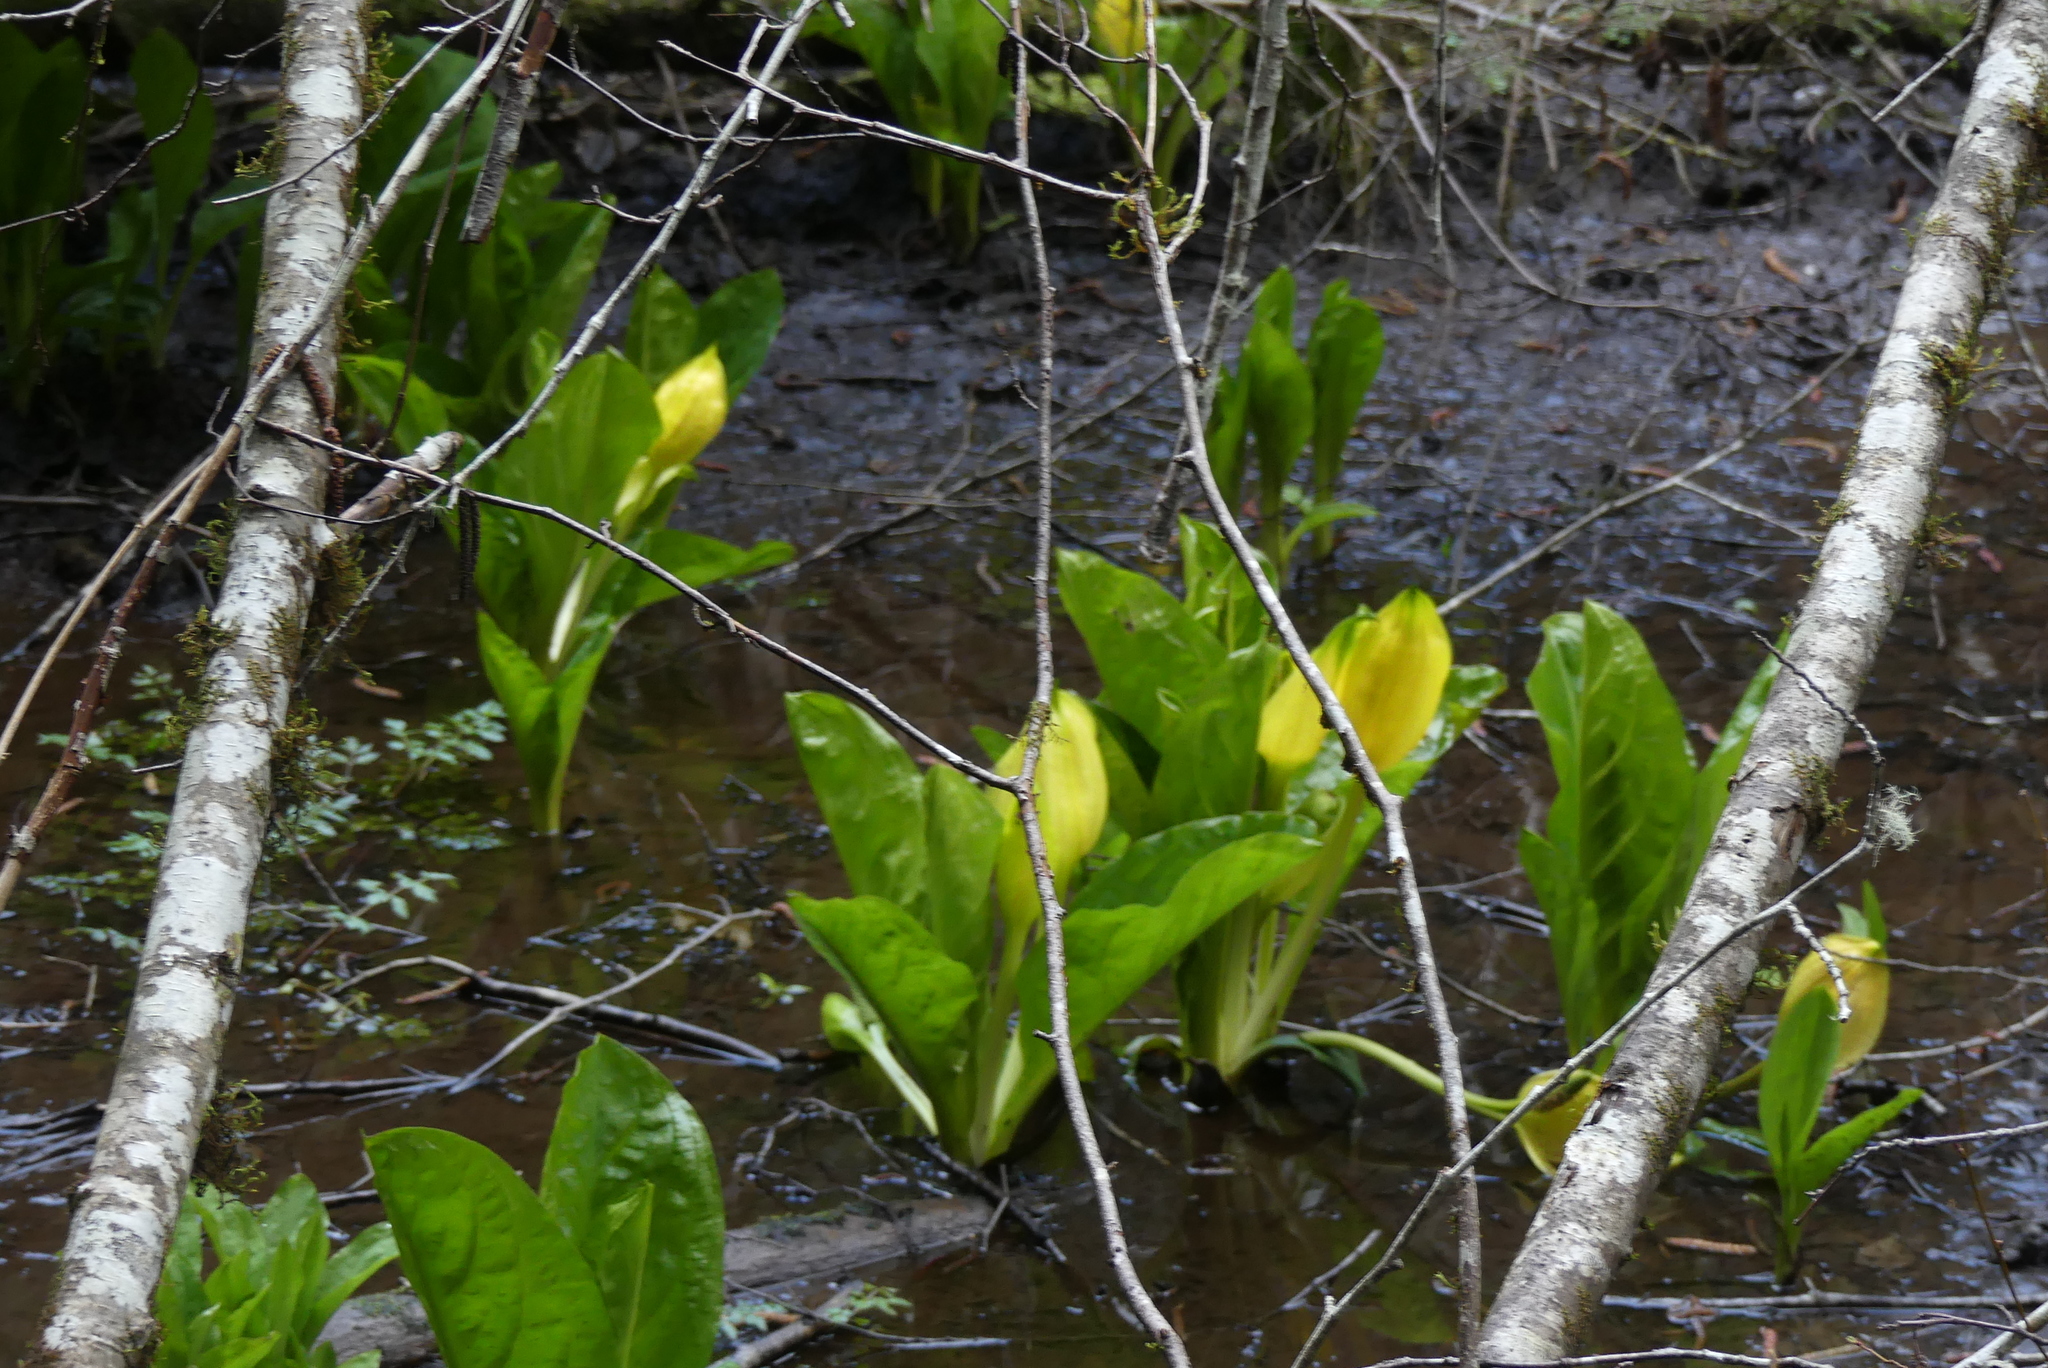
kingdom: Plantae
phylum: Tracheophyta
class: Liliopsida
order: Alismatales
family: Araceae
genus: Lysichiton
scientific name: Lysichiton americanus
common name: American skunk cabbage
